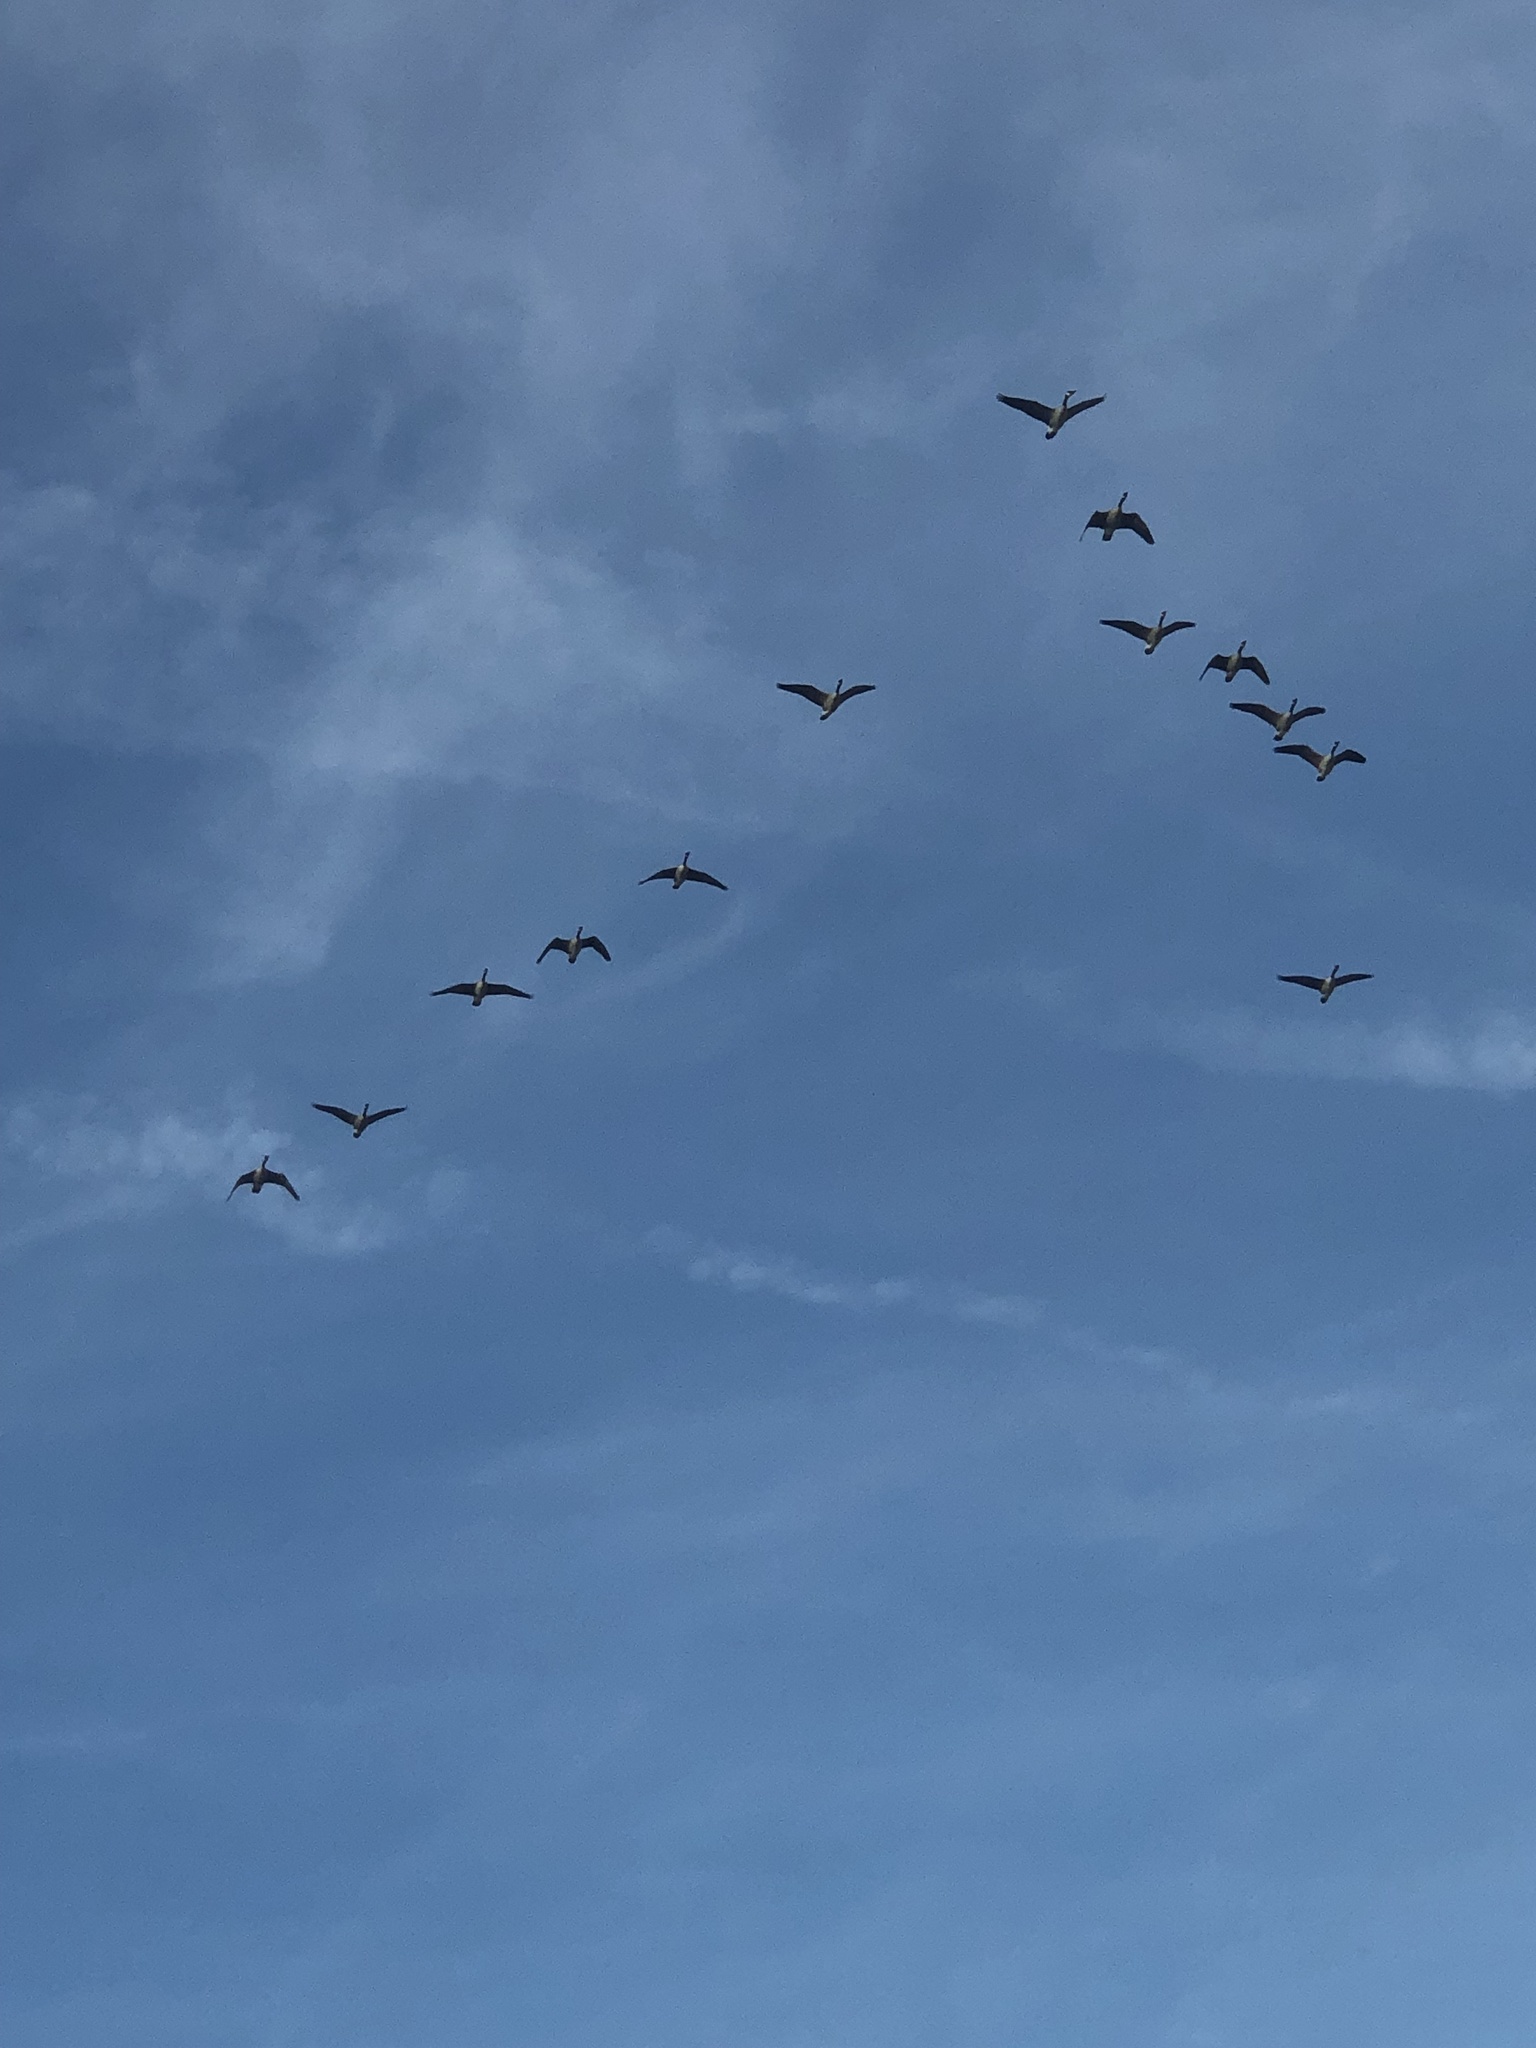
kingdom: Animalia
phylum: Chordata
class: Aves
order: Anseriformes
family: Anatidae
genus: Branta
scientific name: Branta canadensis
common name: Canada goose
